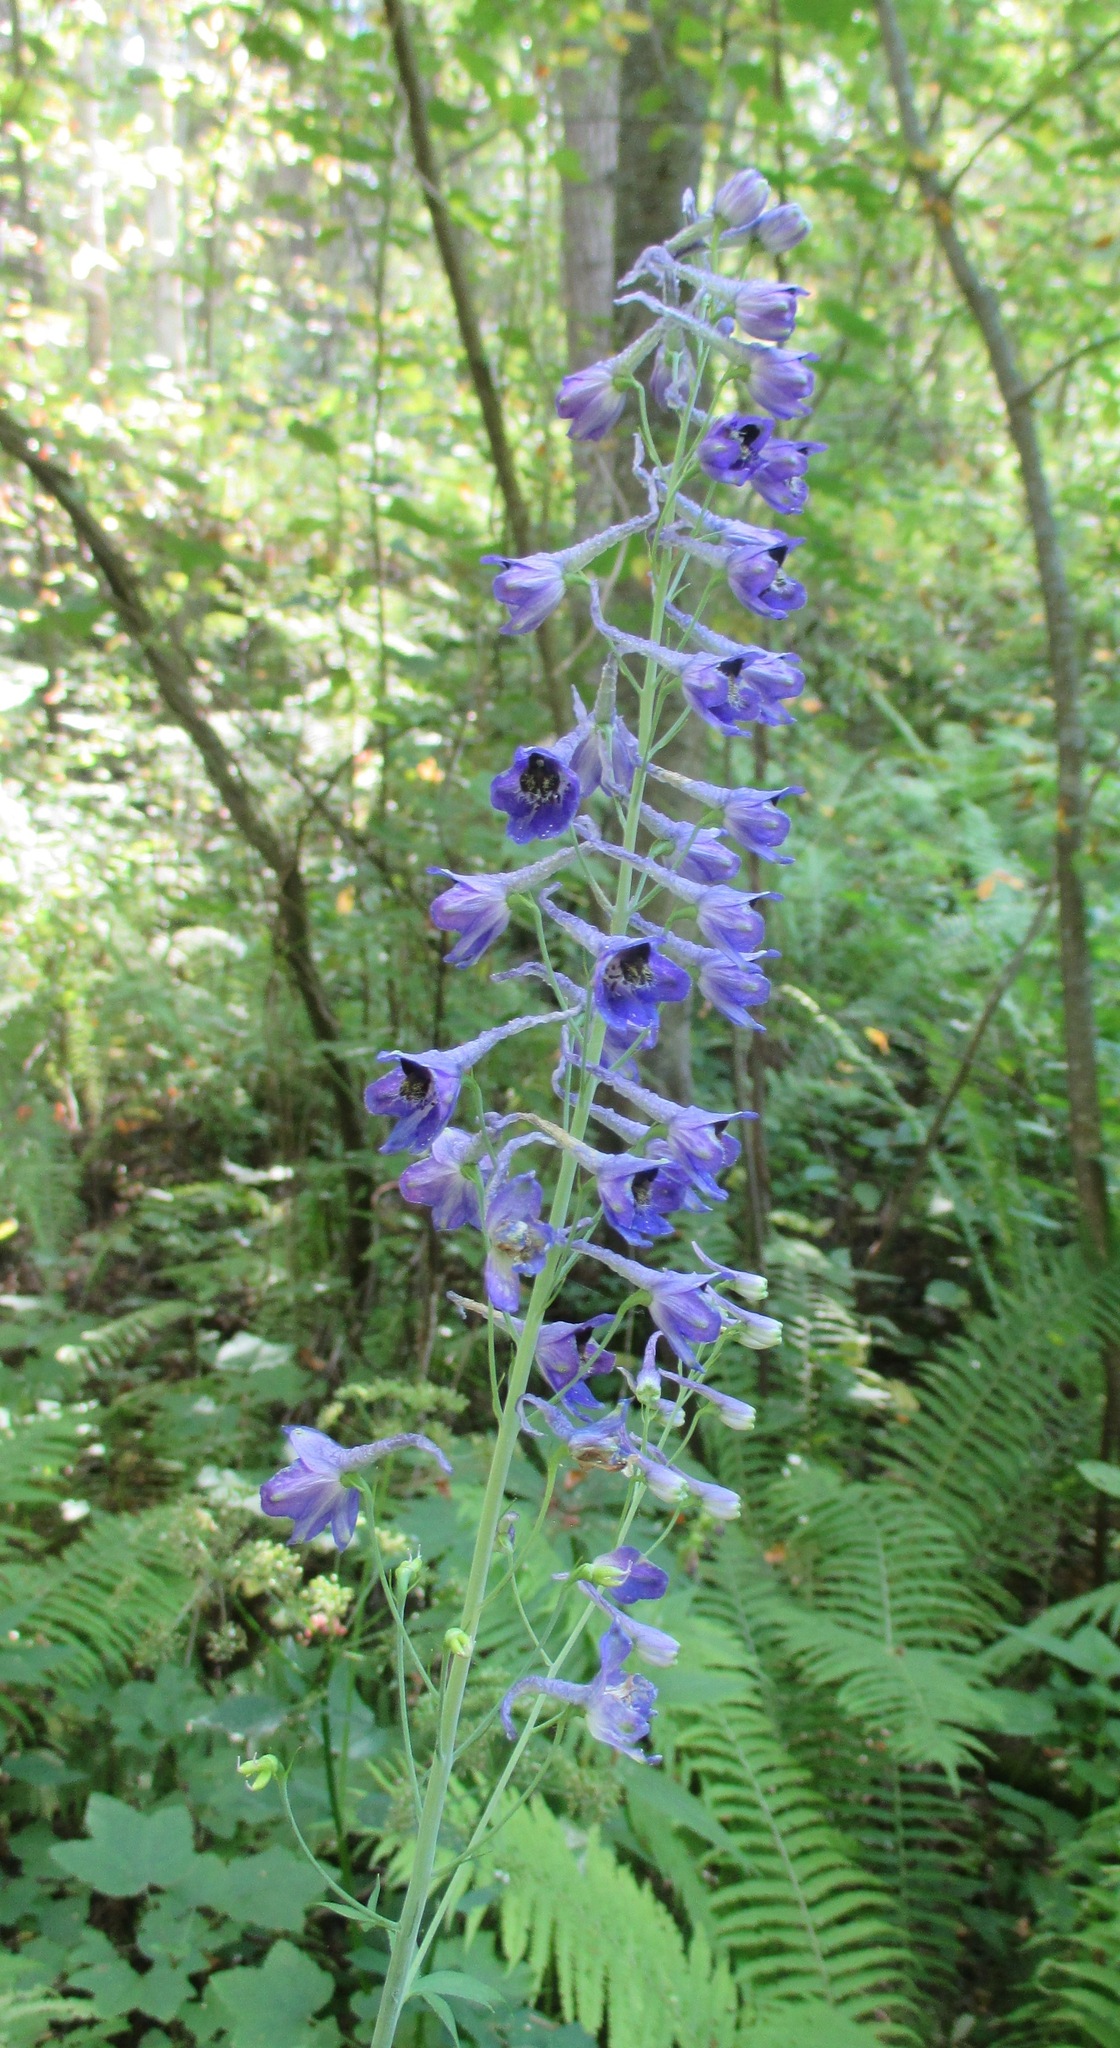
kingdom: Plantae
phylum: Tracheophyta
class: Magnoliopsida
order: Ranunculales
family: Ranunculaceae
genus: Delphinium
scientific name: Delphinium elatum
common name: Candle larkspur
